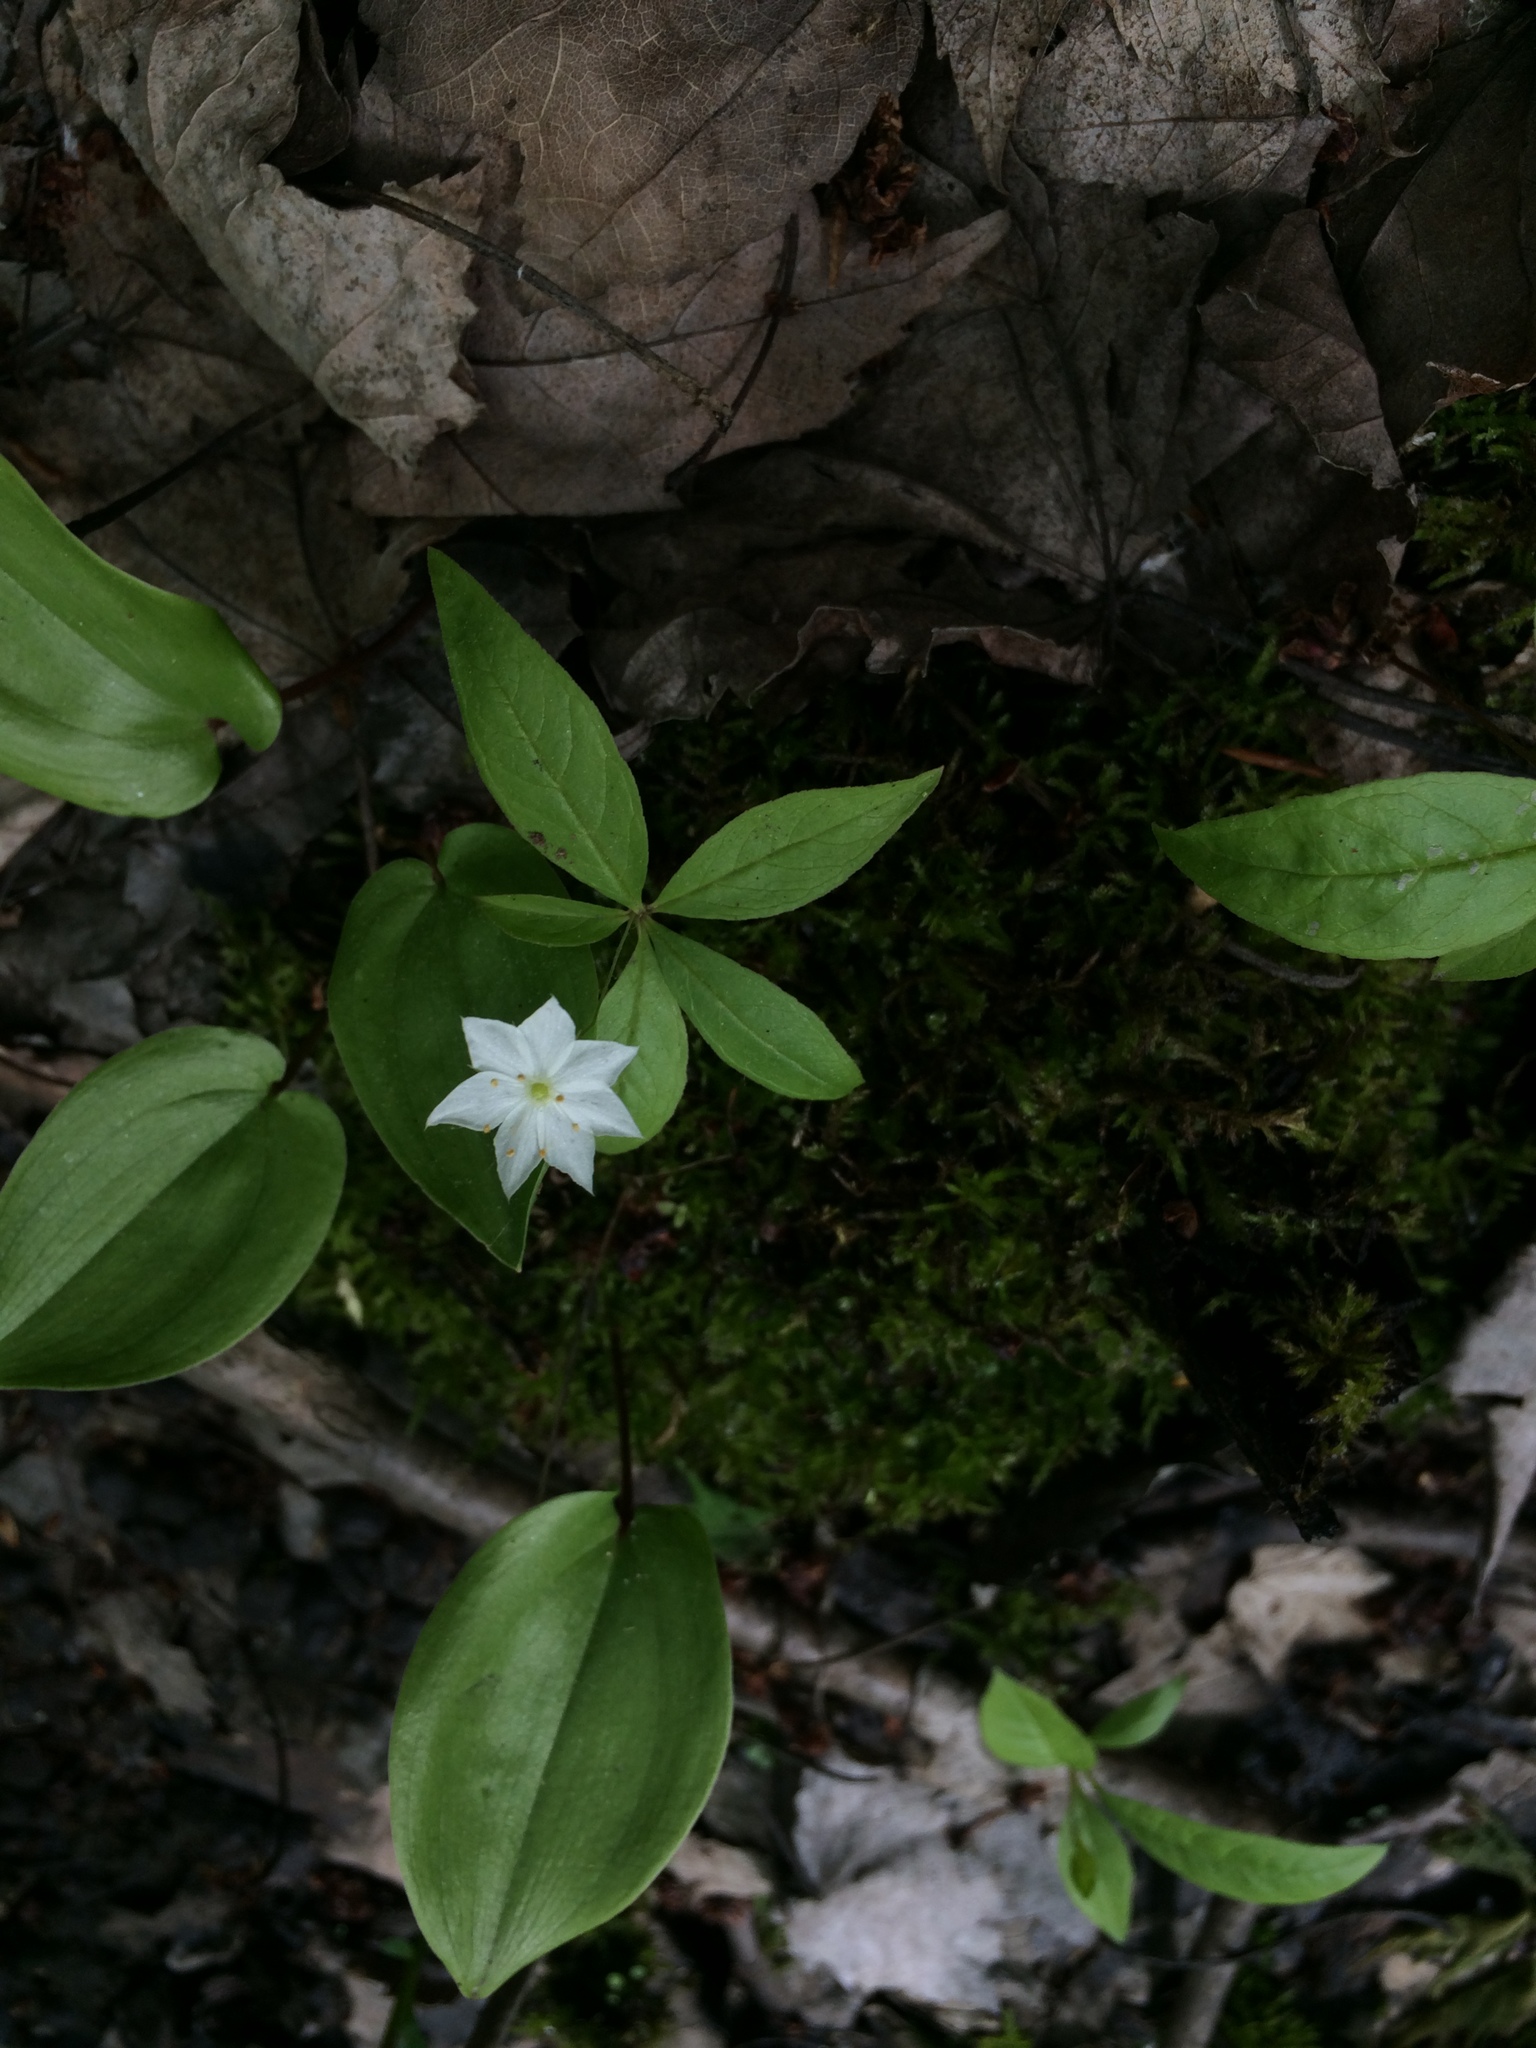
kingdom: Plantae
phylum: Tracheophyta
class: Magnoliopsida
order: Ericales
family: Primulaceae
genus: Lysimachia
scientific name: Lysimachia borealis
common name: American starflower
